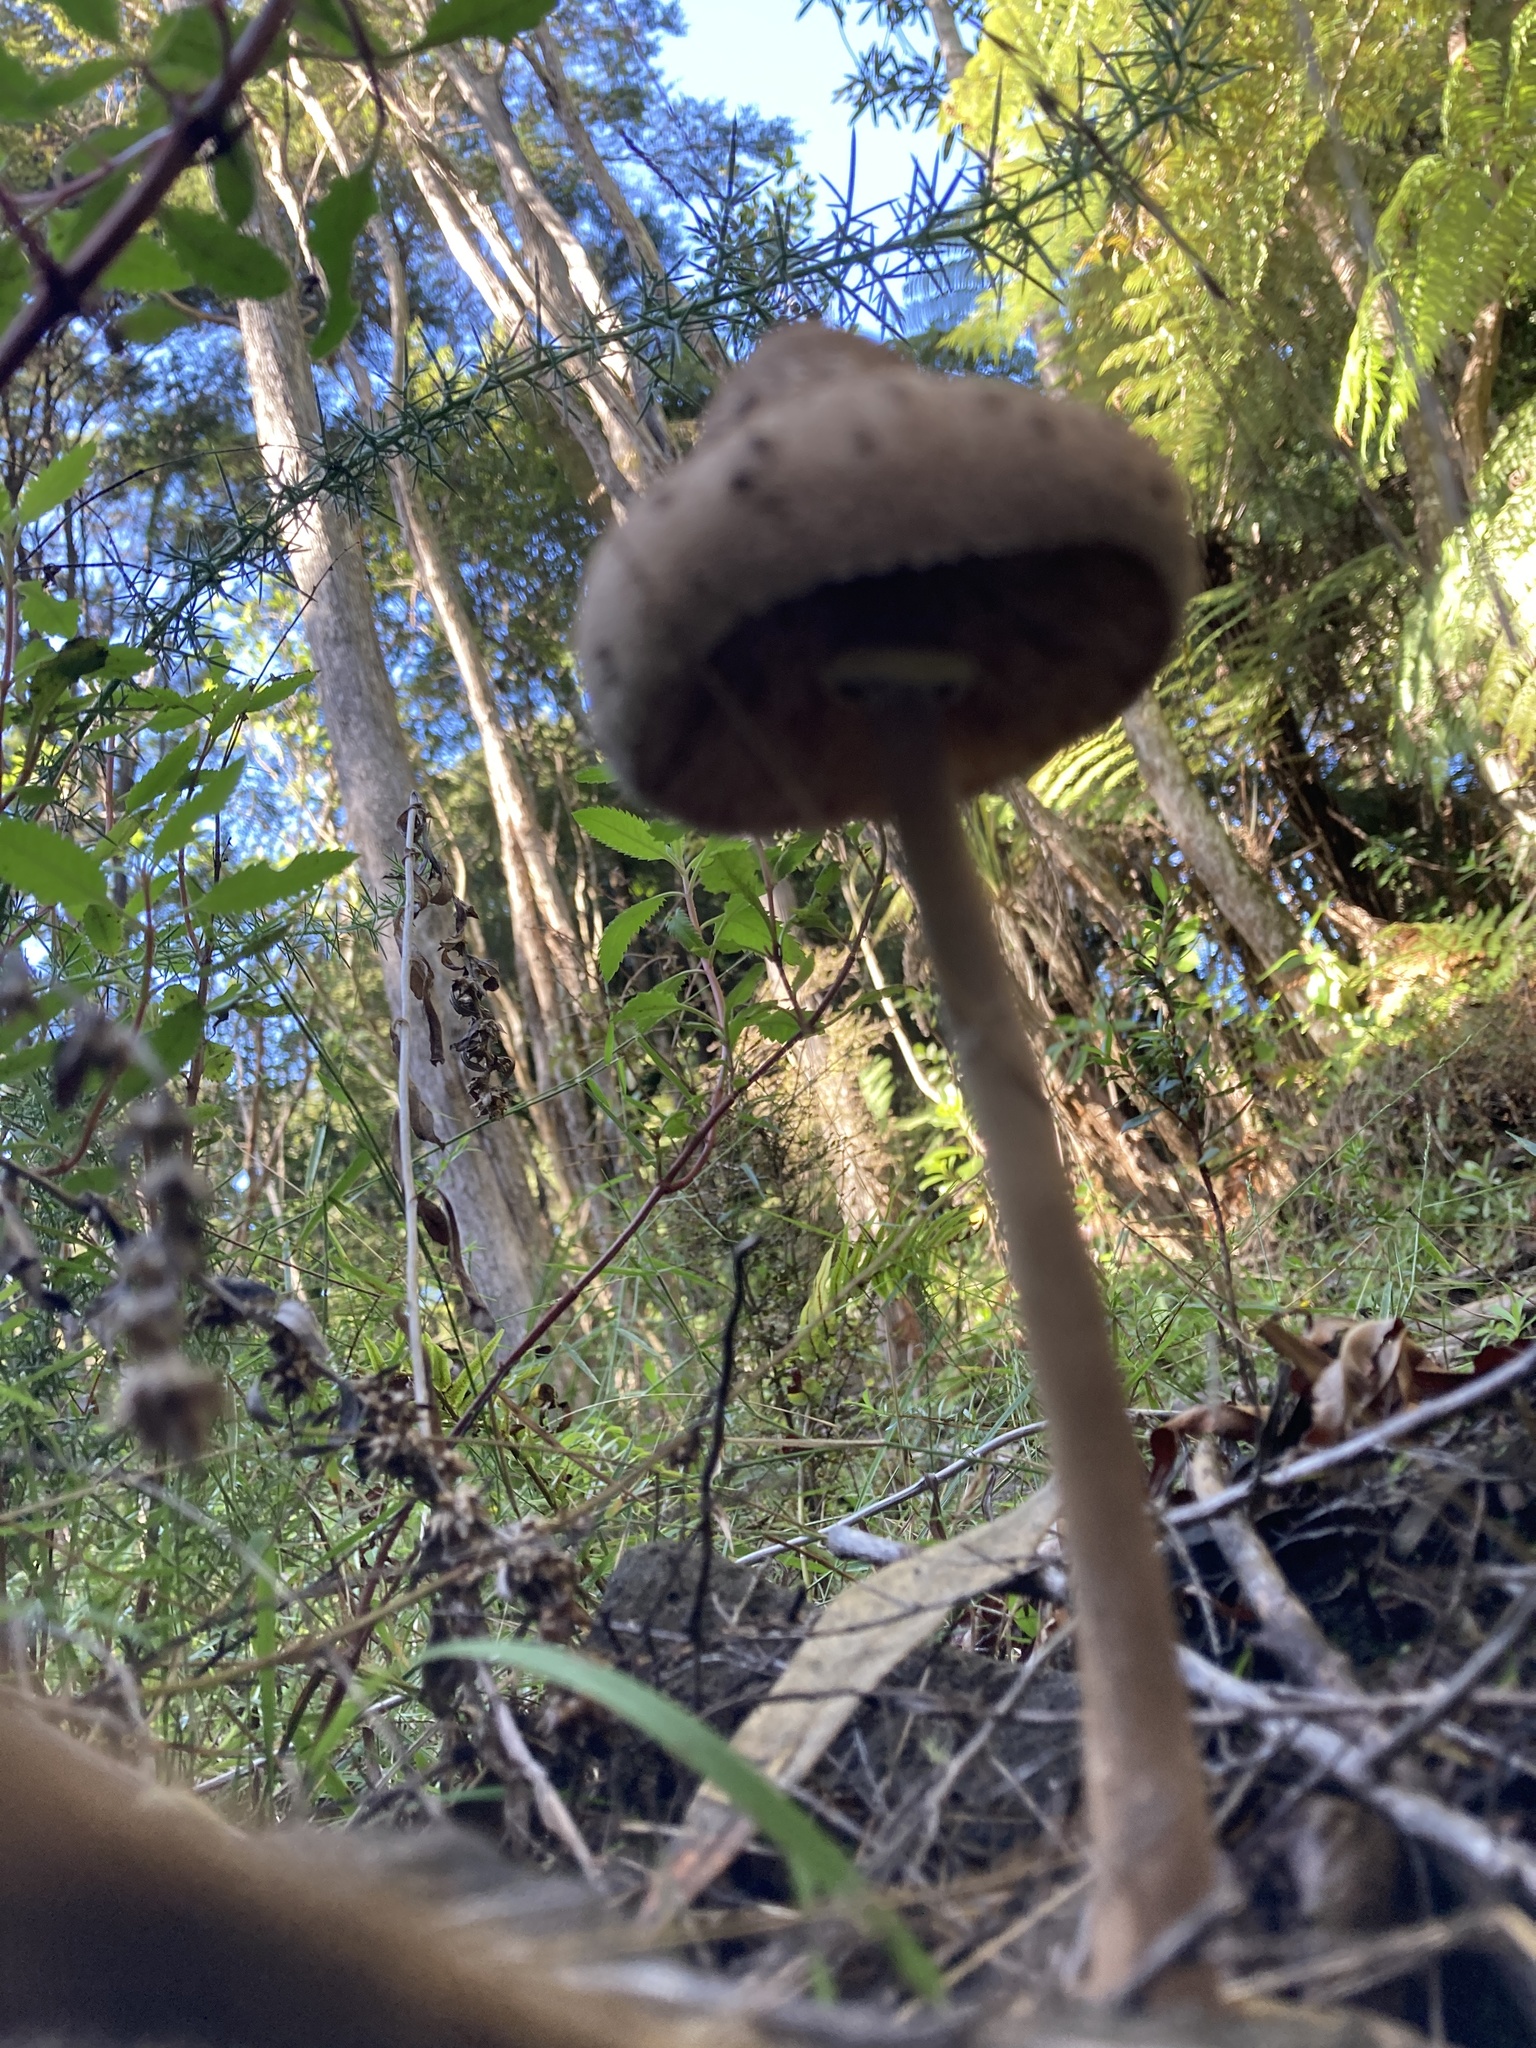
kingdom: Fungi
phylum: Basidiomycota
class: Agaricomycetes
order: Agaricales
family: Agaricaceae
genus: Macrolepiota
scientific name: Macrolepiota clelandii
